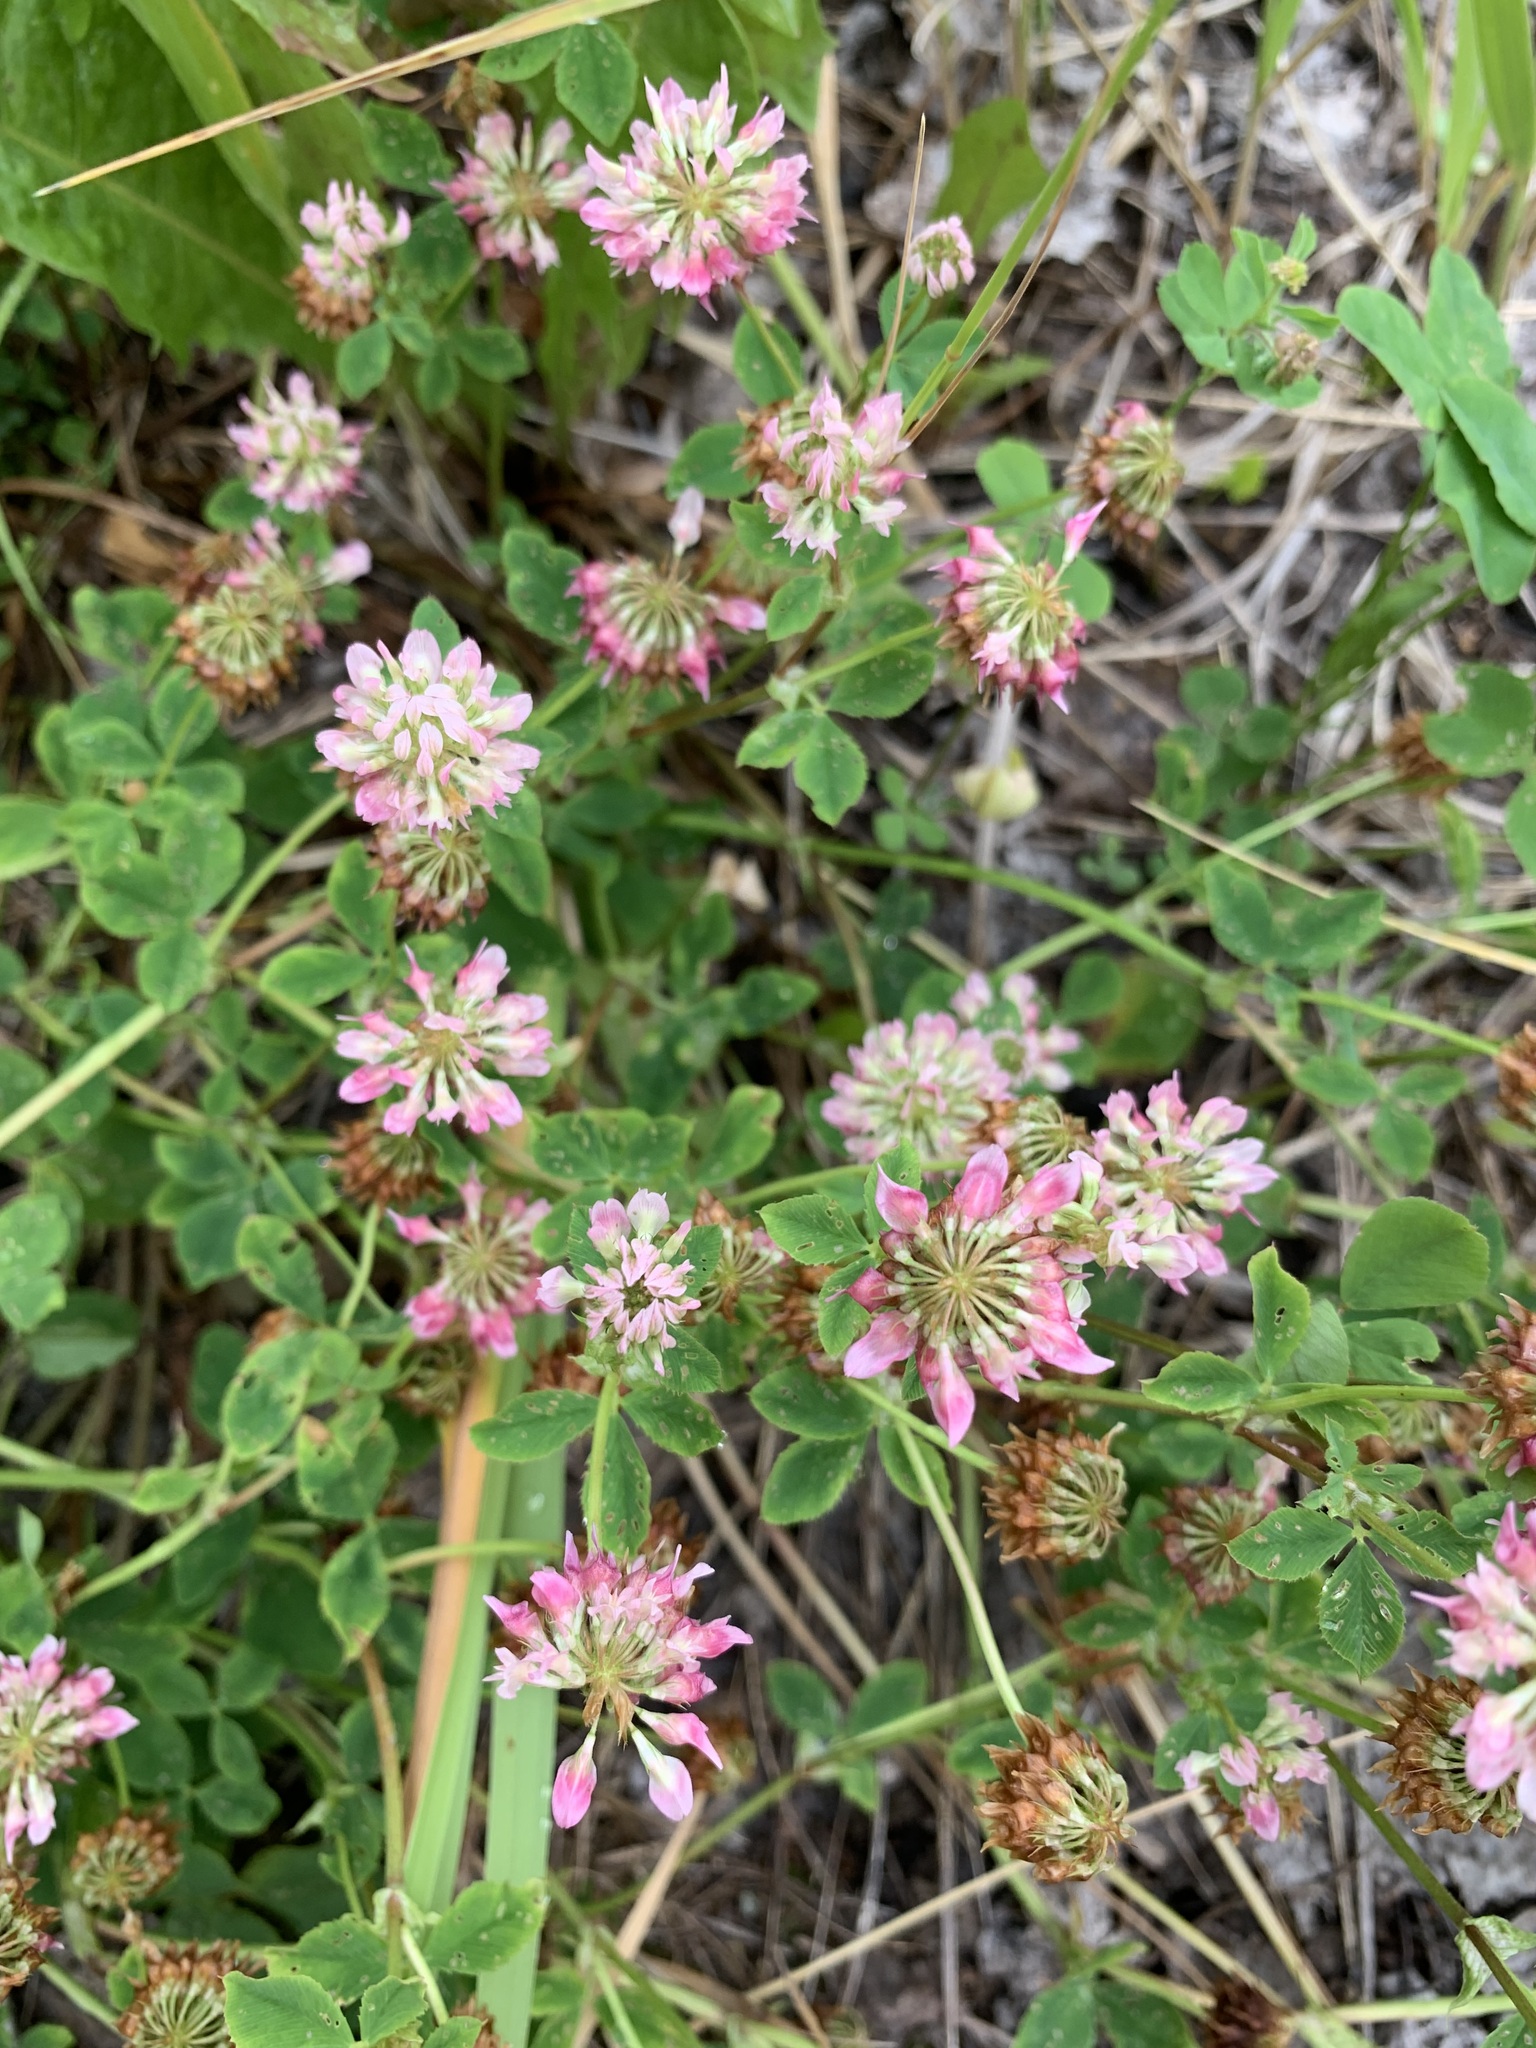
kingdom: Plantae
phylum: Tracheophyta
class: Magnoliopsida
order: Fabales
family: Fabaceae
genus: Trifolium
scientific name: Trifolium hybridum
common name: Alsike clover
